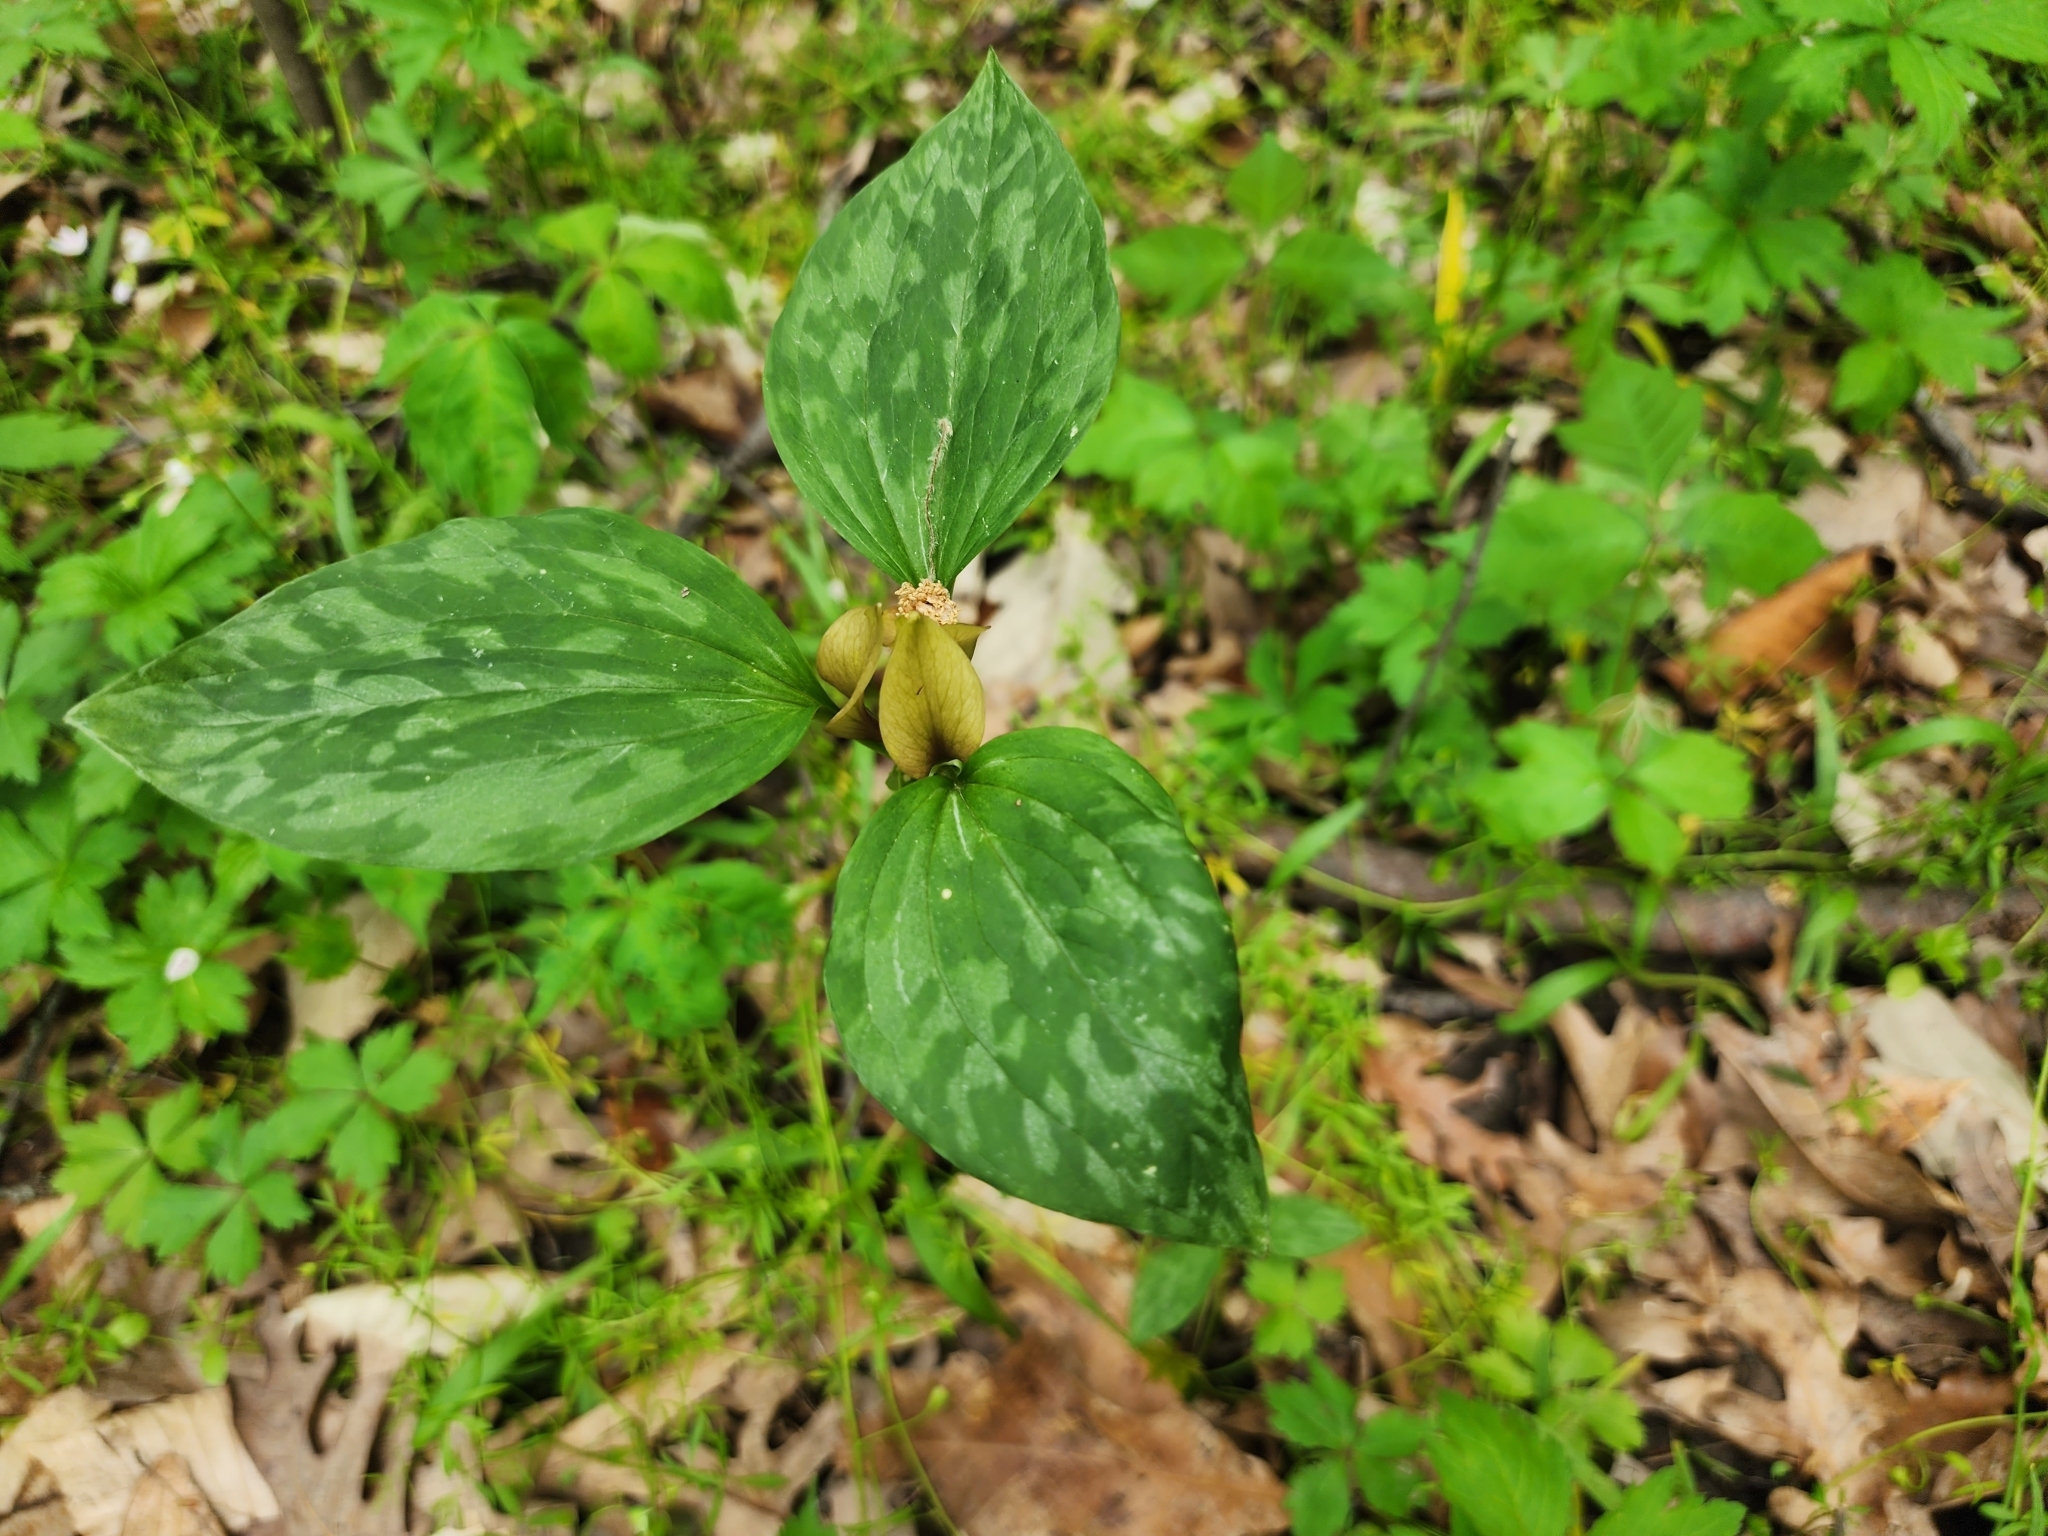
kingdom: Plantae
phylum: Tracheophyta
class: Liliopsida
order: Liliales
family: Melanthiaceae
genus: Trillium
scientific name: Trillium recurvatum
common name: Bloody butcher
